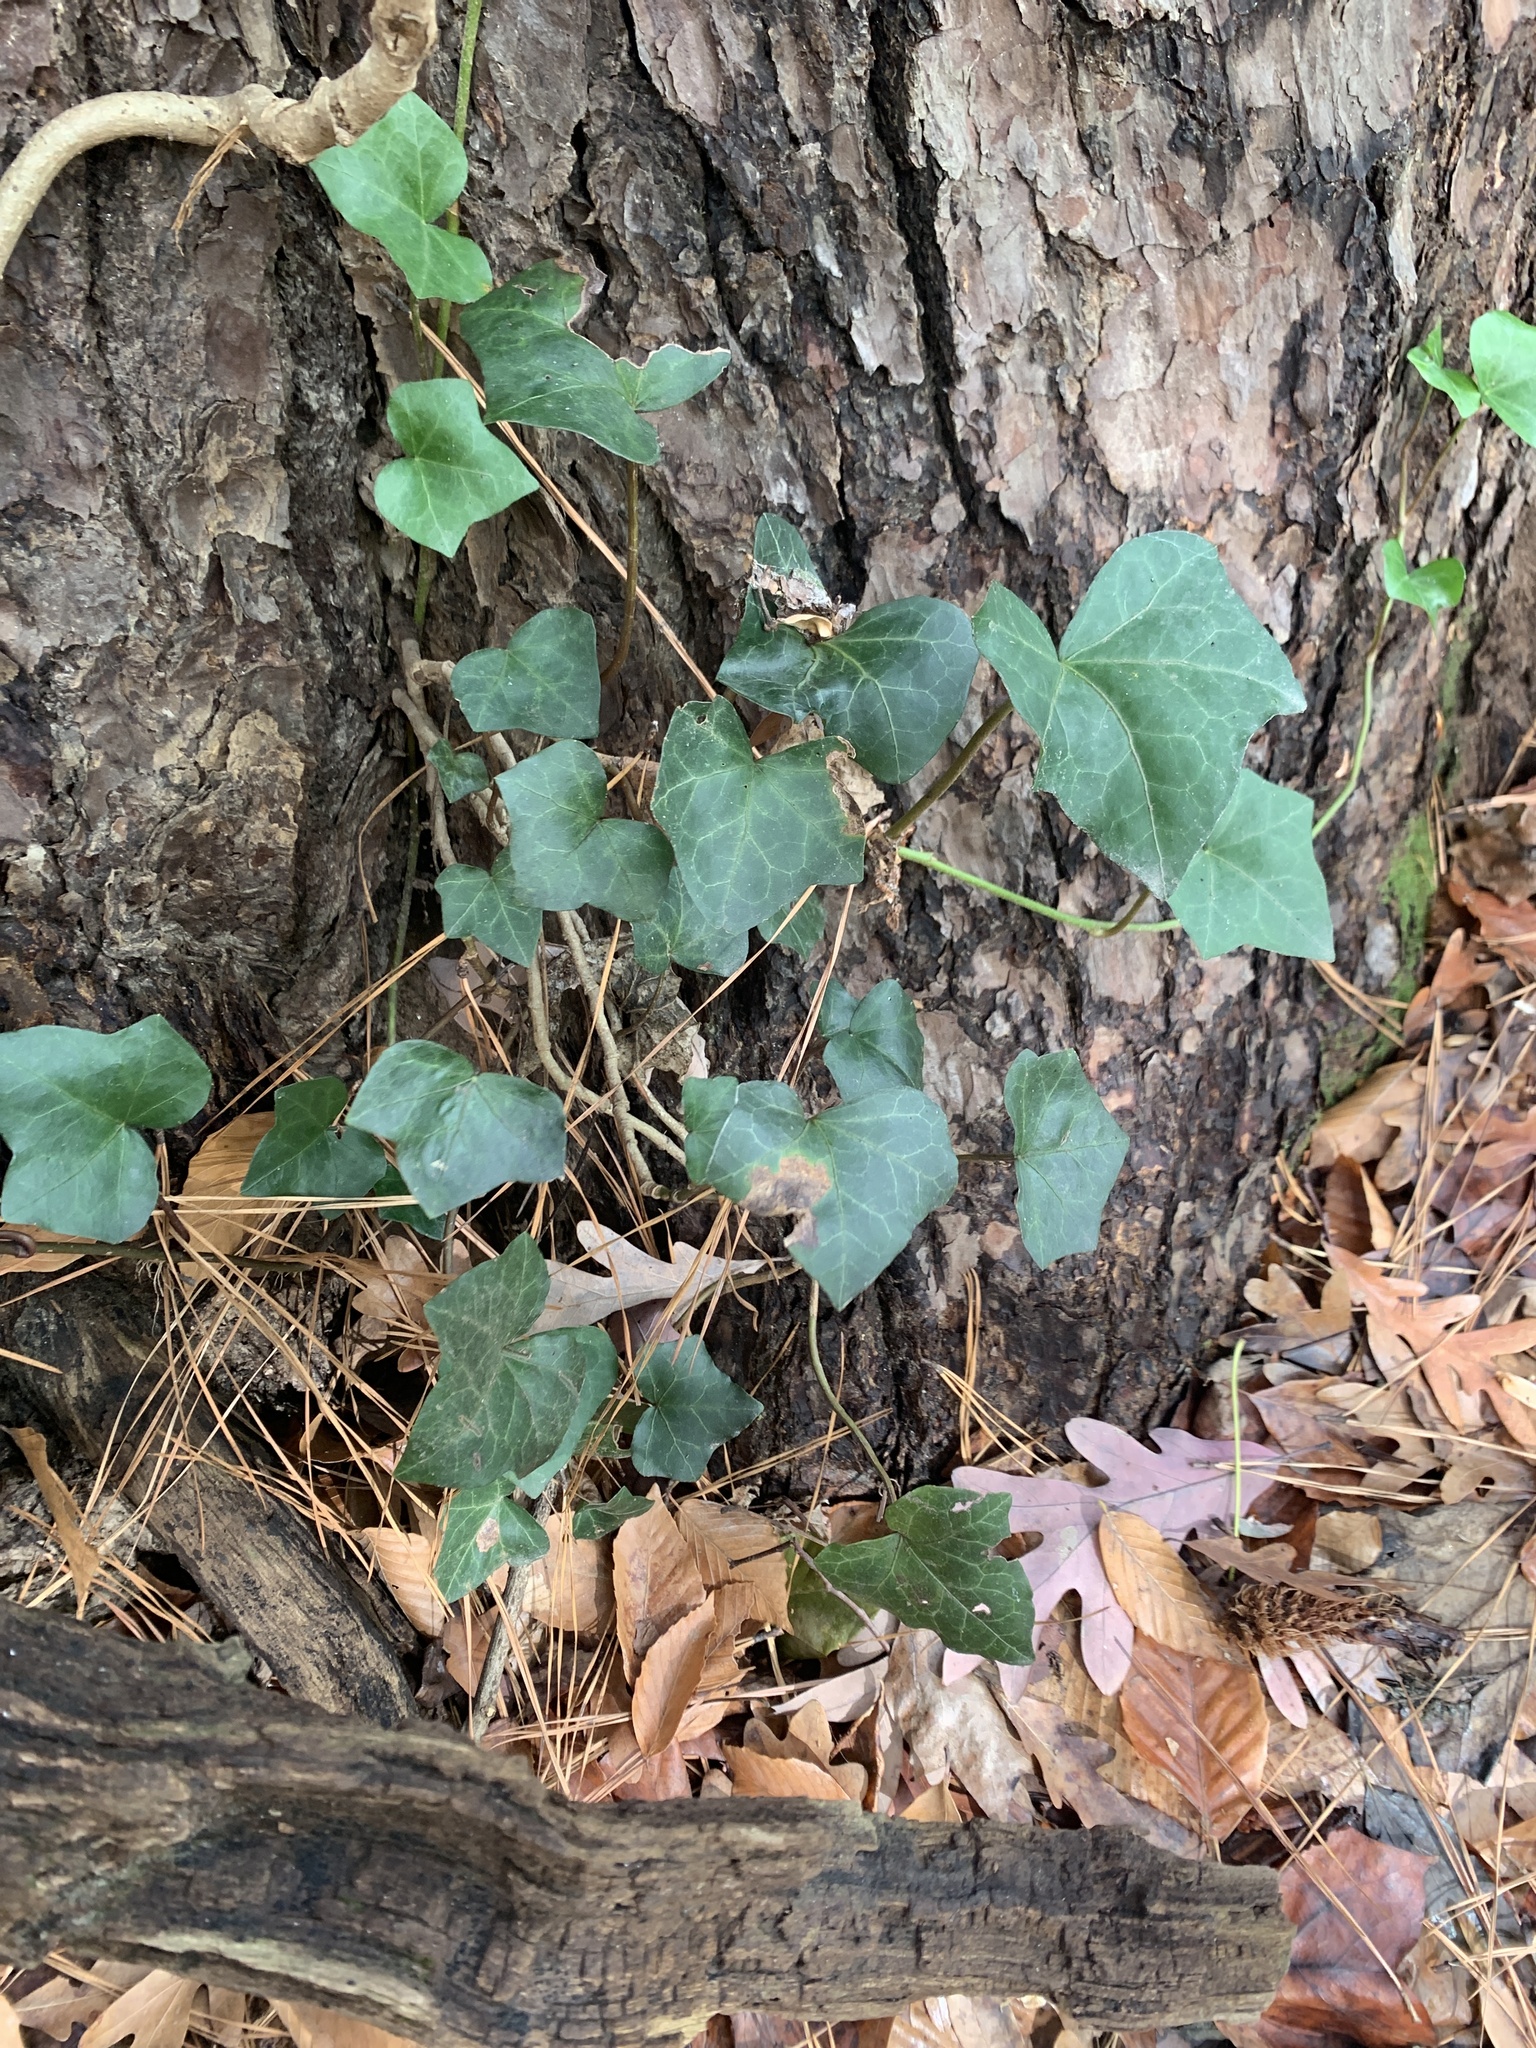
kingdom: Plantae
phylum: Tracheophyta
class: Magnoliopsida
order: Apiales
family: Araliaceae
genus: Hedera
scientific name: Hedera helix
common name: Ivy
